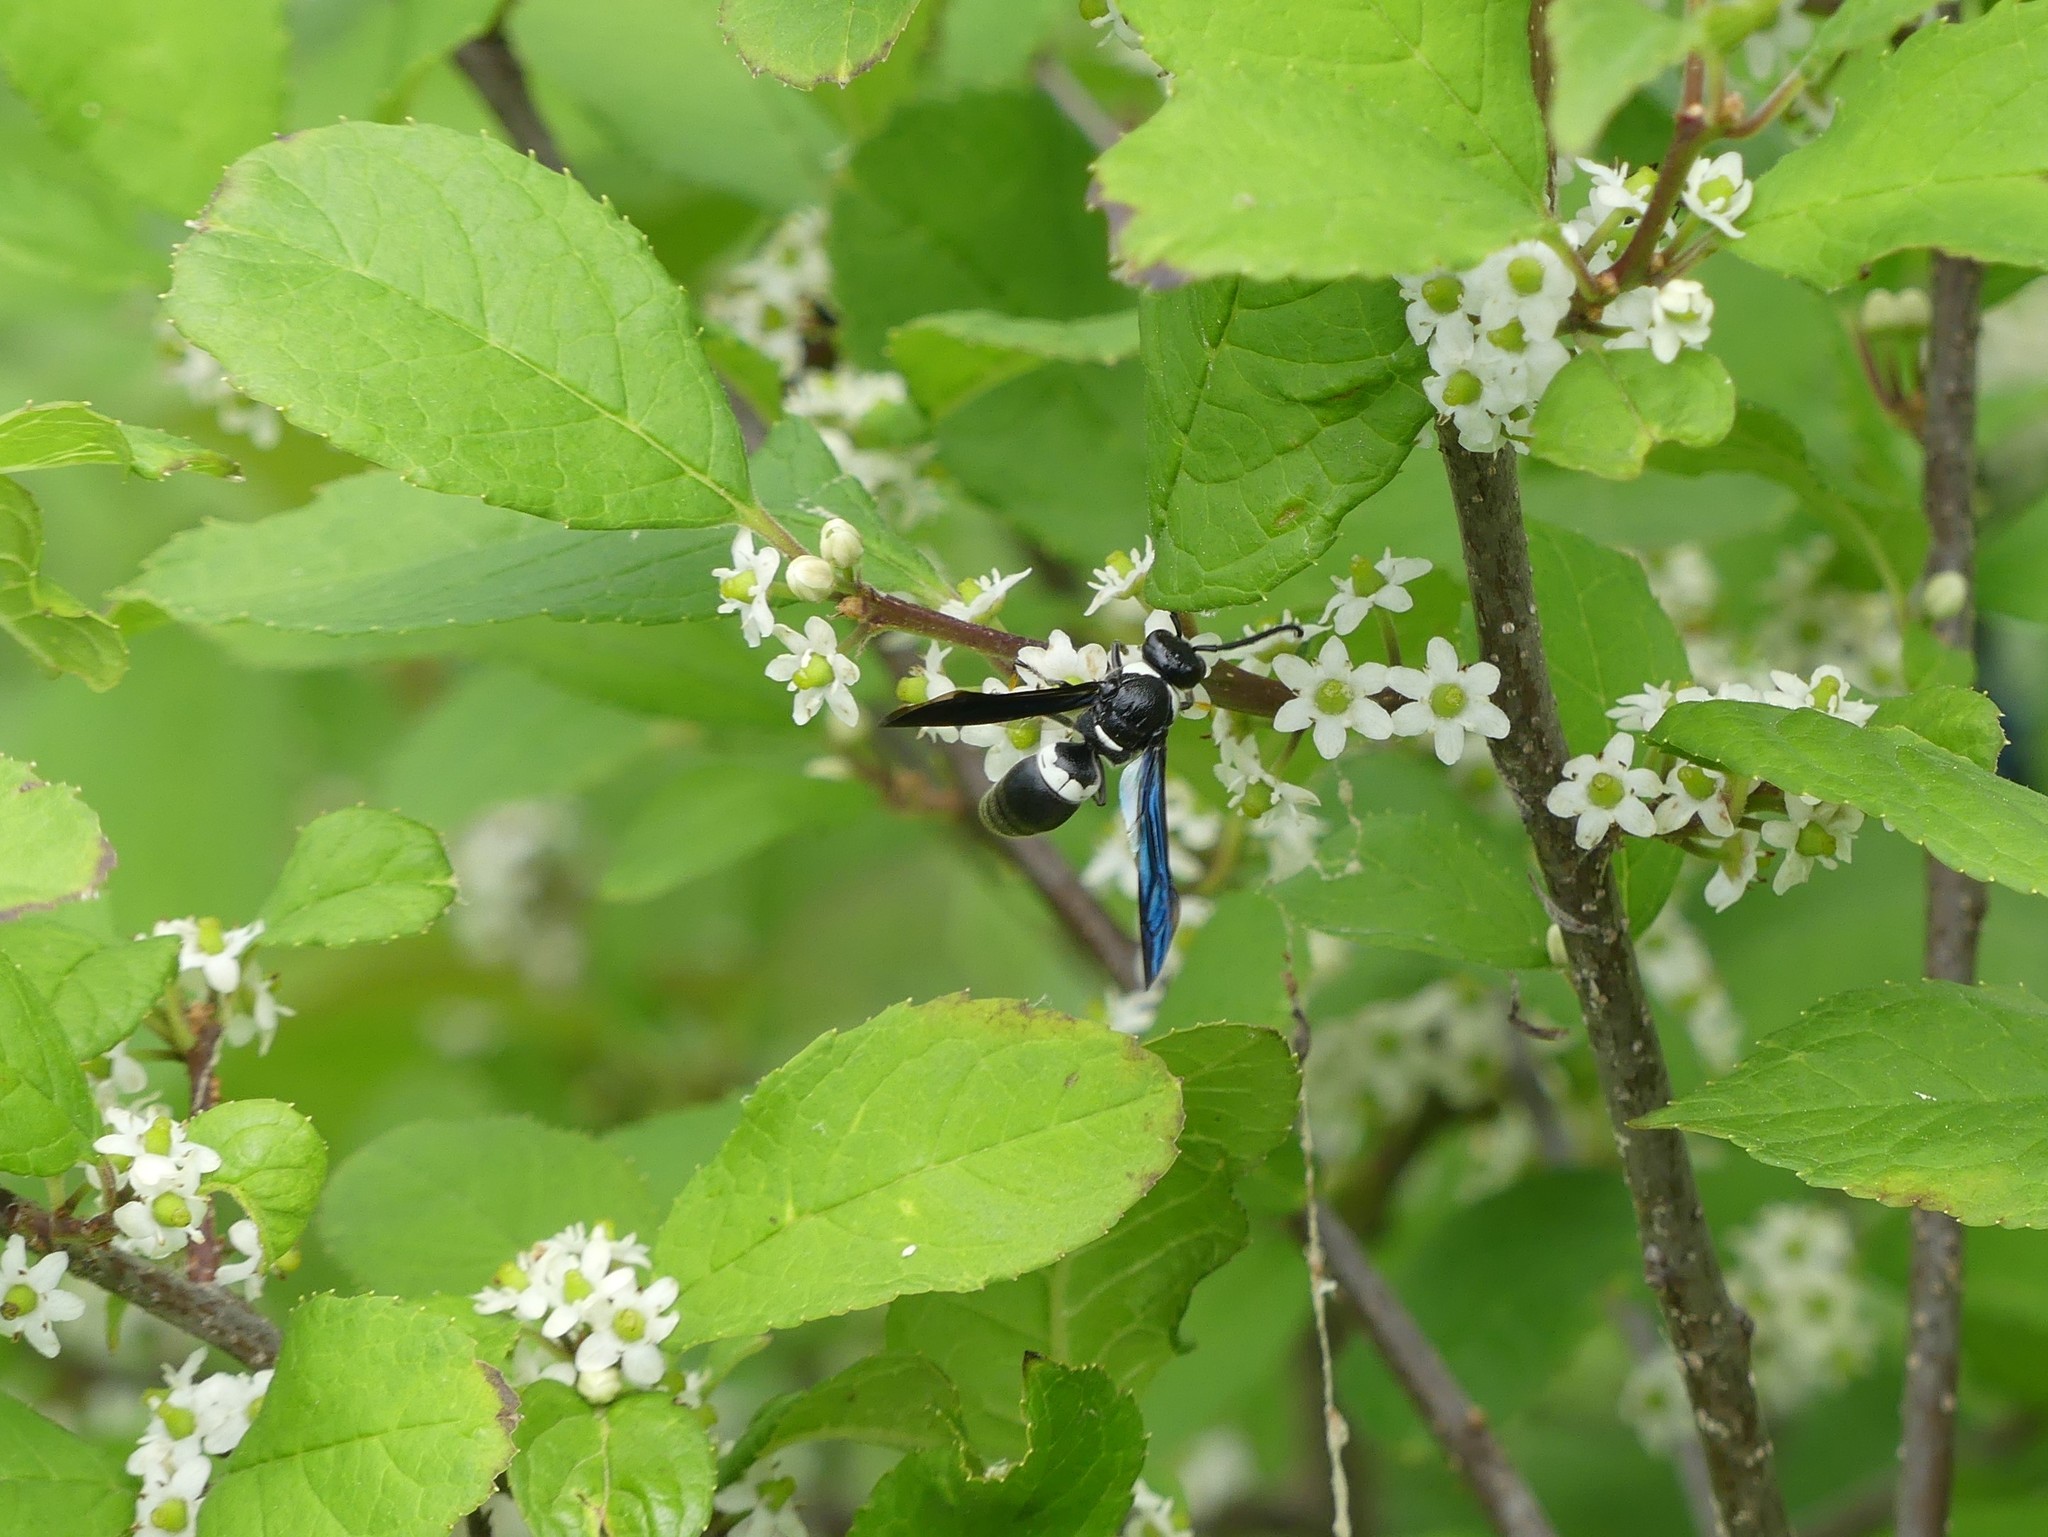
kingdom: Animalia
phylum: Arthropoda
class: Insecta
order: Hymenoptera
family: Eumenidae
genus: Monobia
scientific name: Monobia quadridens
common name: Four-toothed mason wasp
